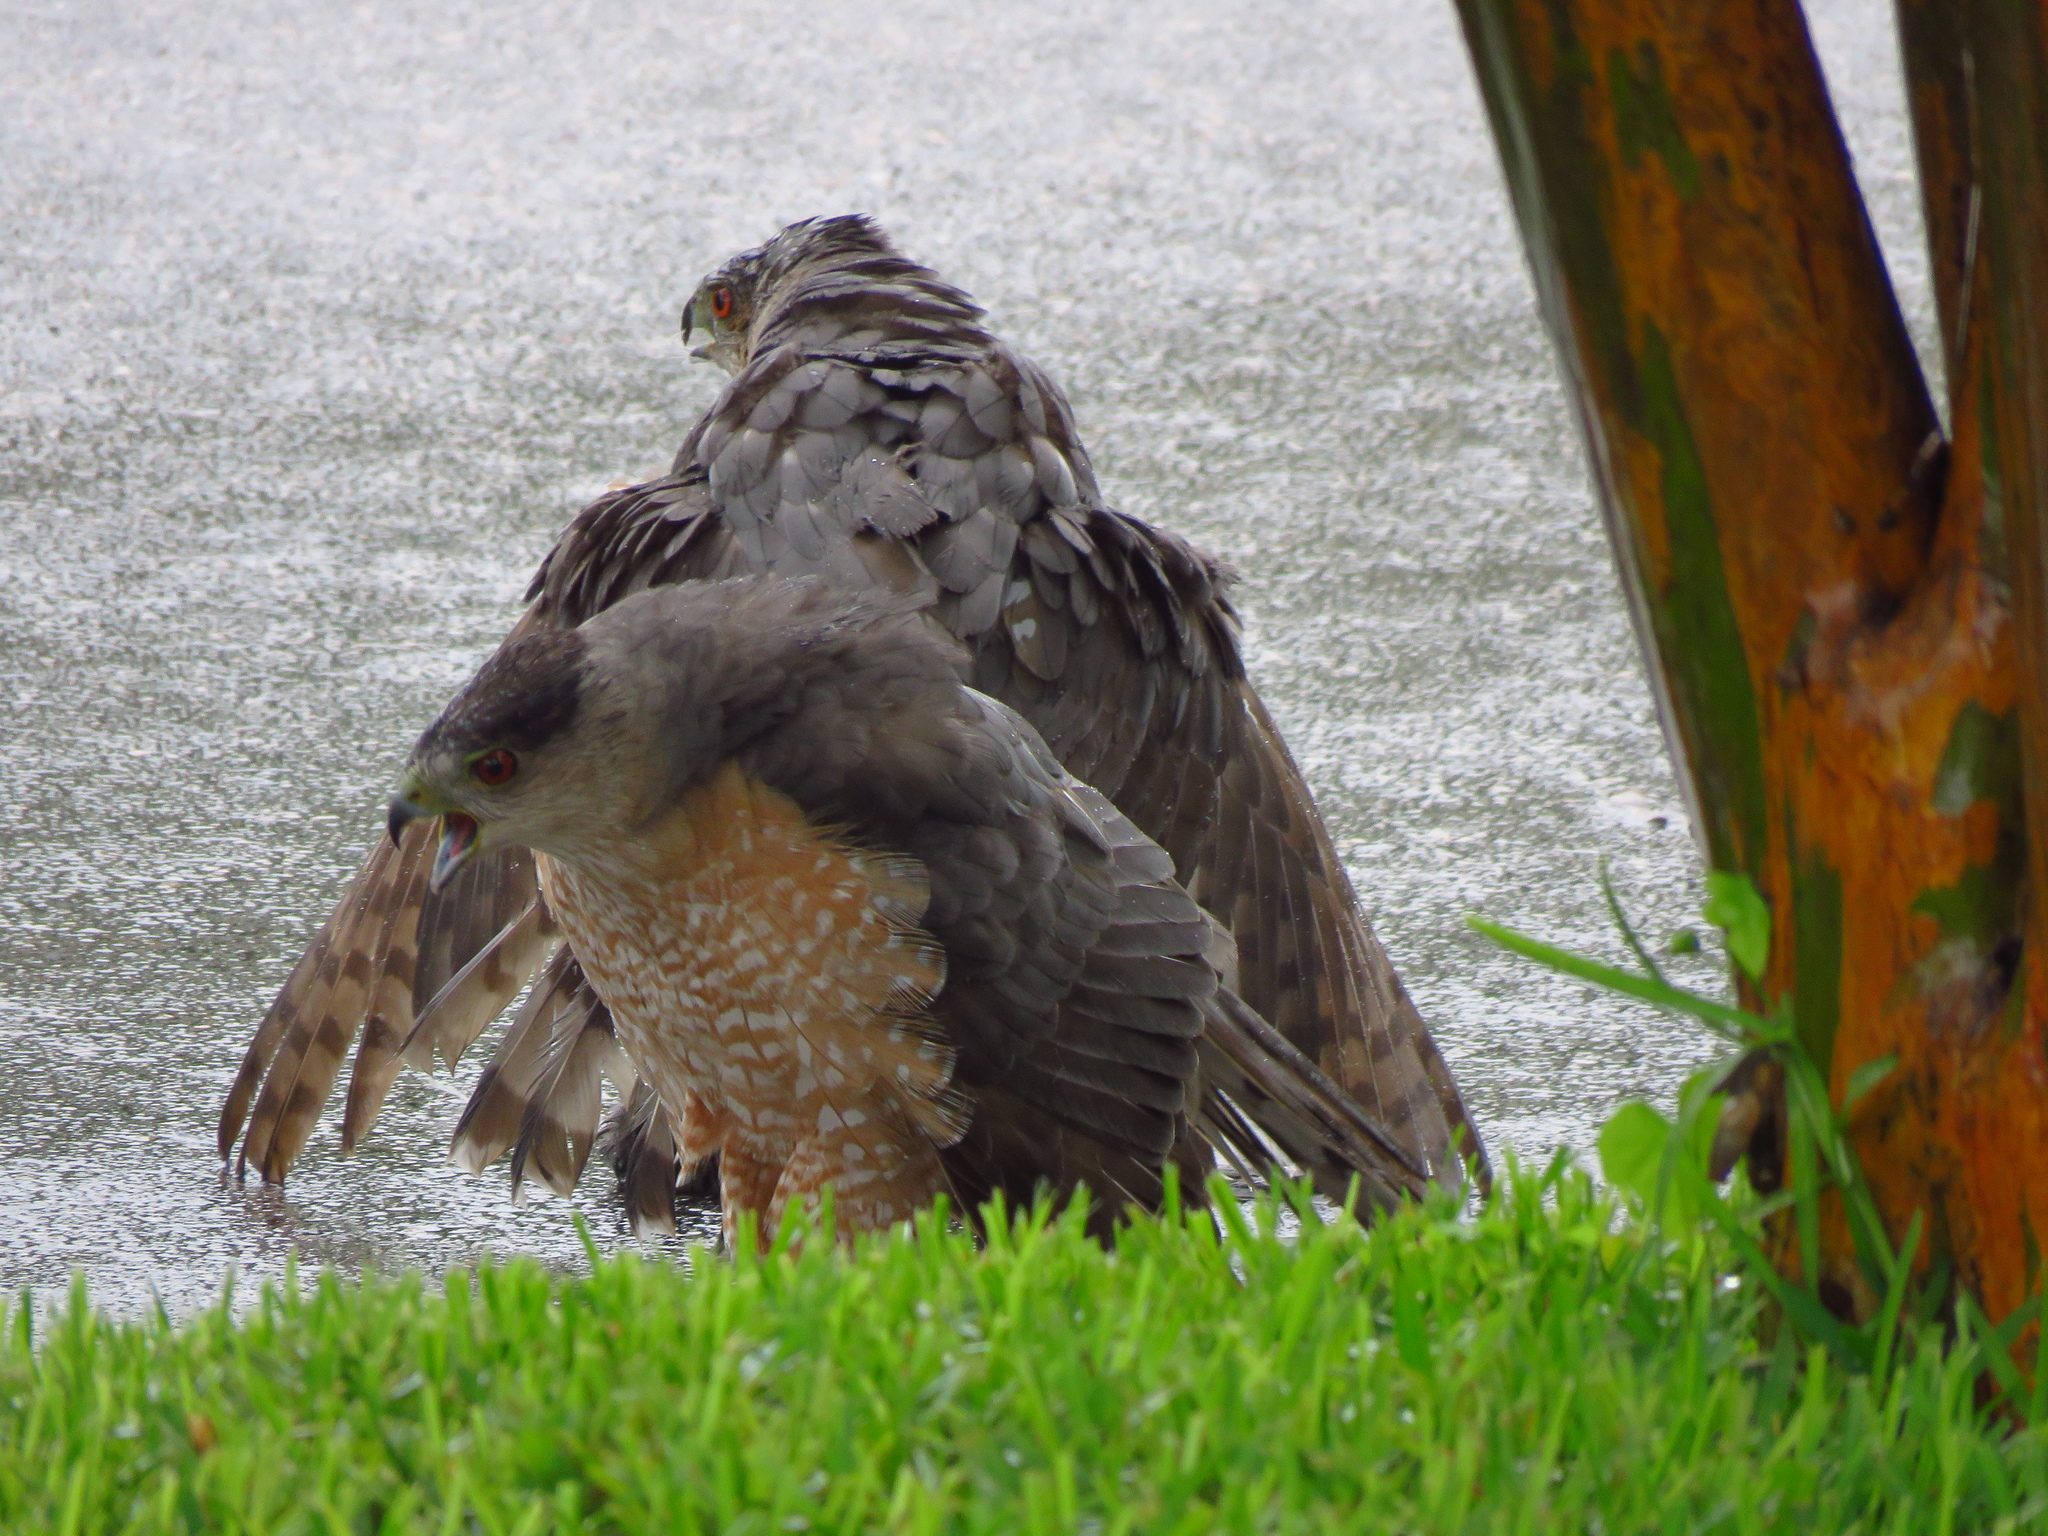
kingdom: Animalia
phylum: Chordata
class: Aves
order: Accipitriformes
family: Accipitridae
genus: Accipiter
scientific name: Accipiter cooperii
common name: Cooper's hawk
